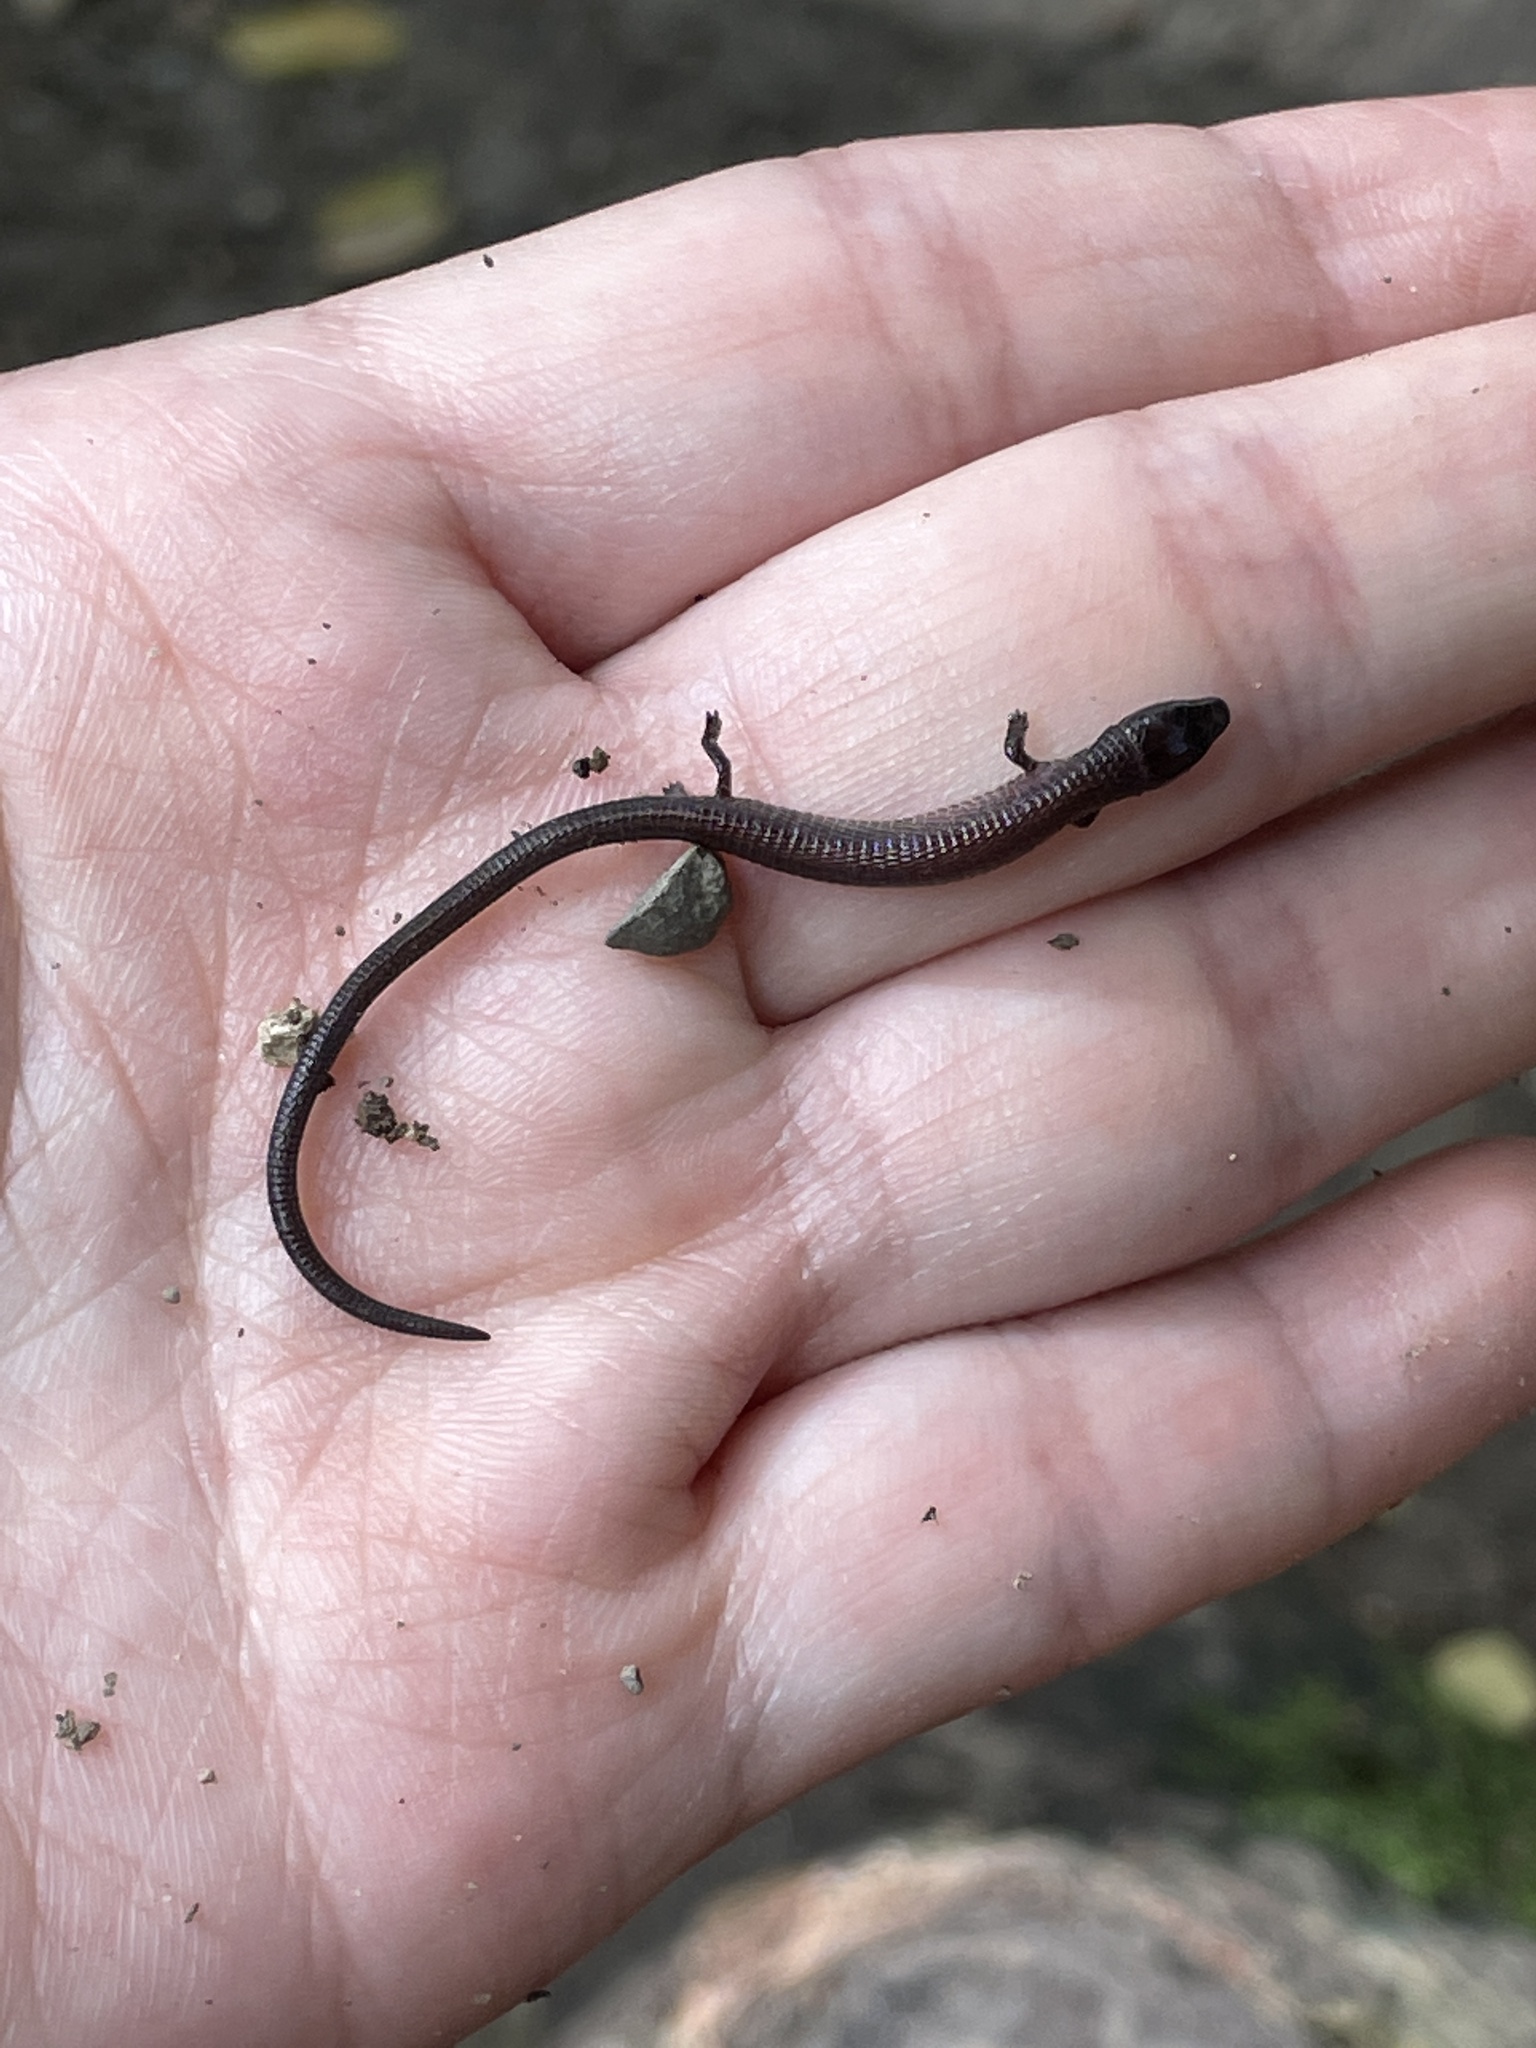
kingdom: Animalia
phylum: Chordata
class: Squamata
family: Gymnophthalmidae
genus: Bachia
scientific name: Bachia trinitatis
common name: Trinidad bachia
